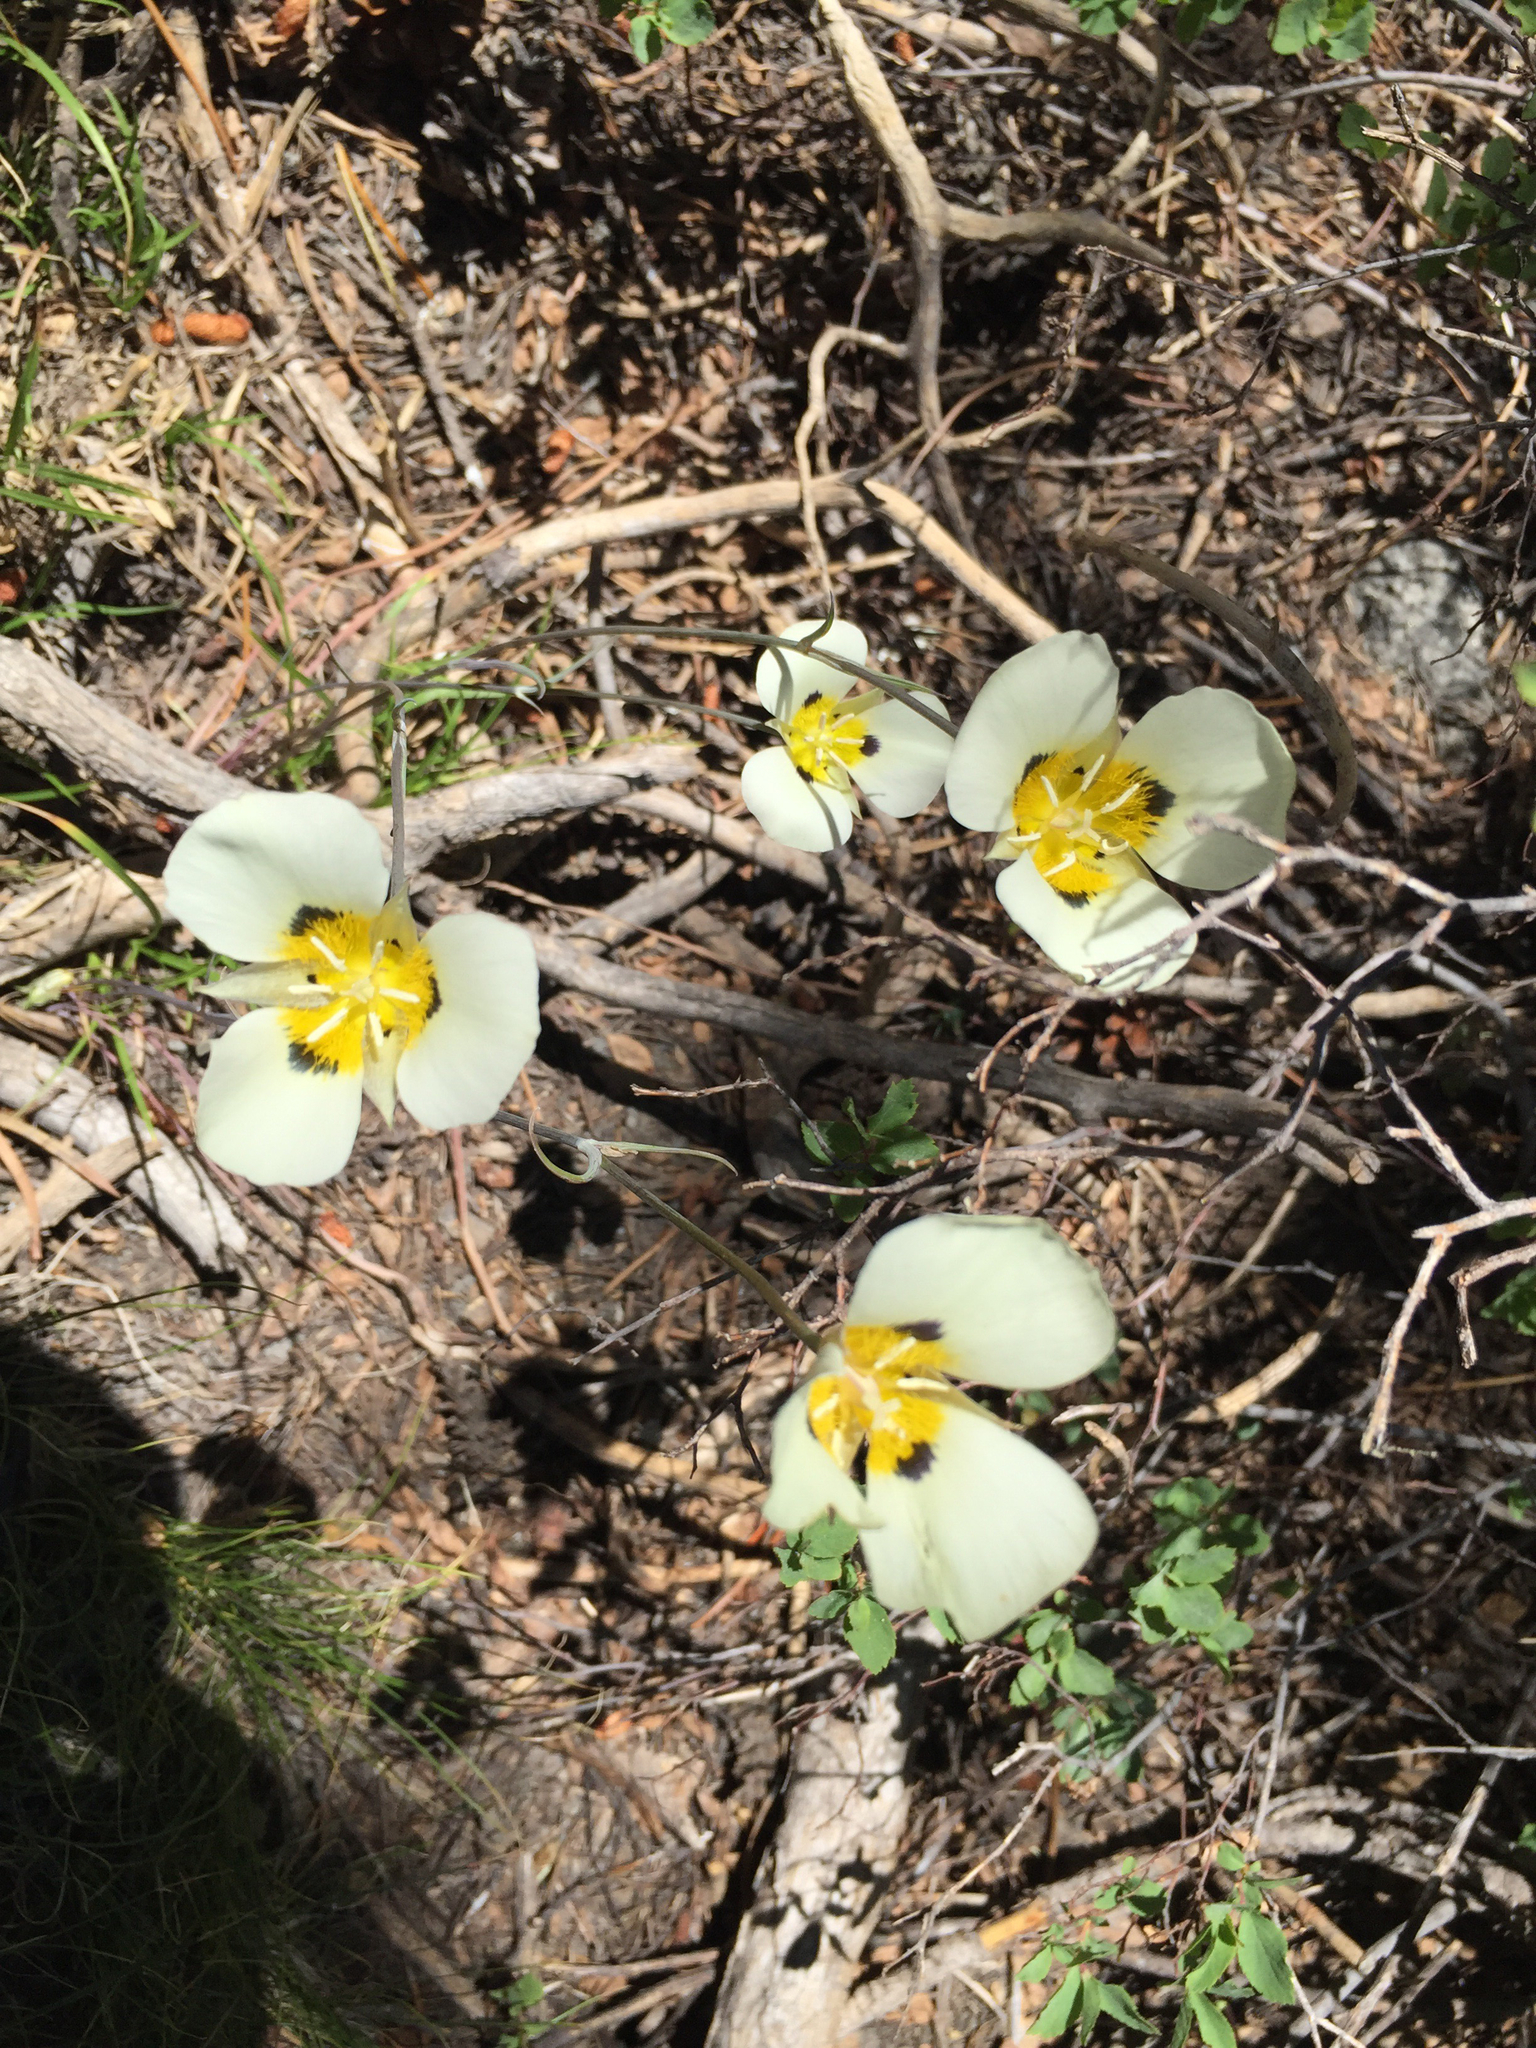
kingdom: Plantae
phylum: Tracheophyta
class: Liliopsida
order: Liliales
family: Liliaceae
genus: Calochortus
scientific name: Calochortus leichtlinii
